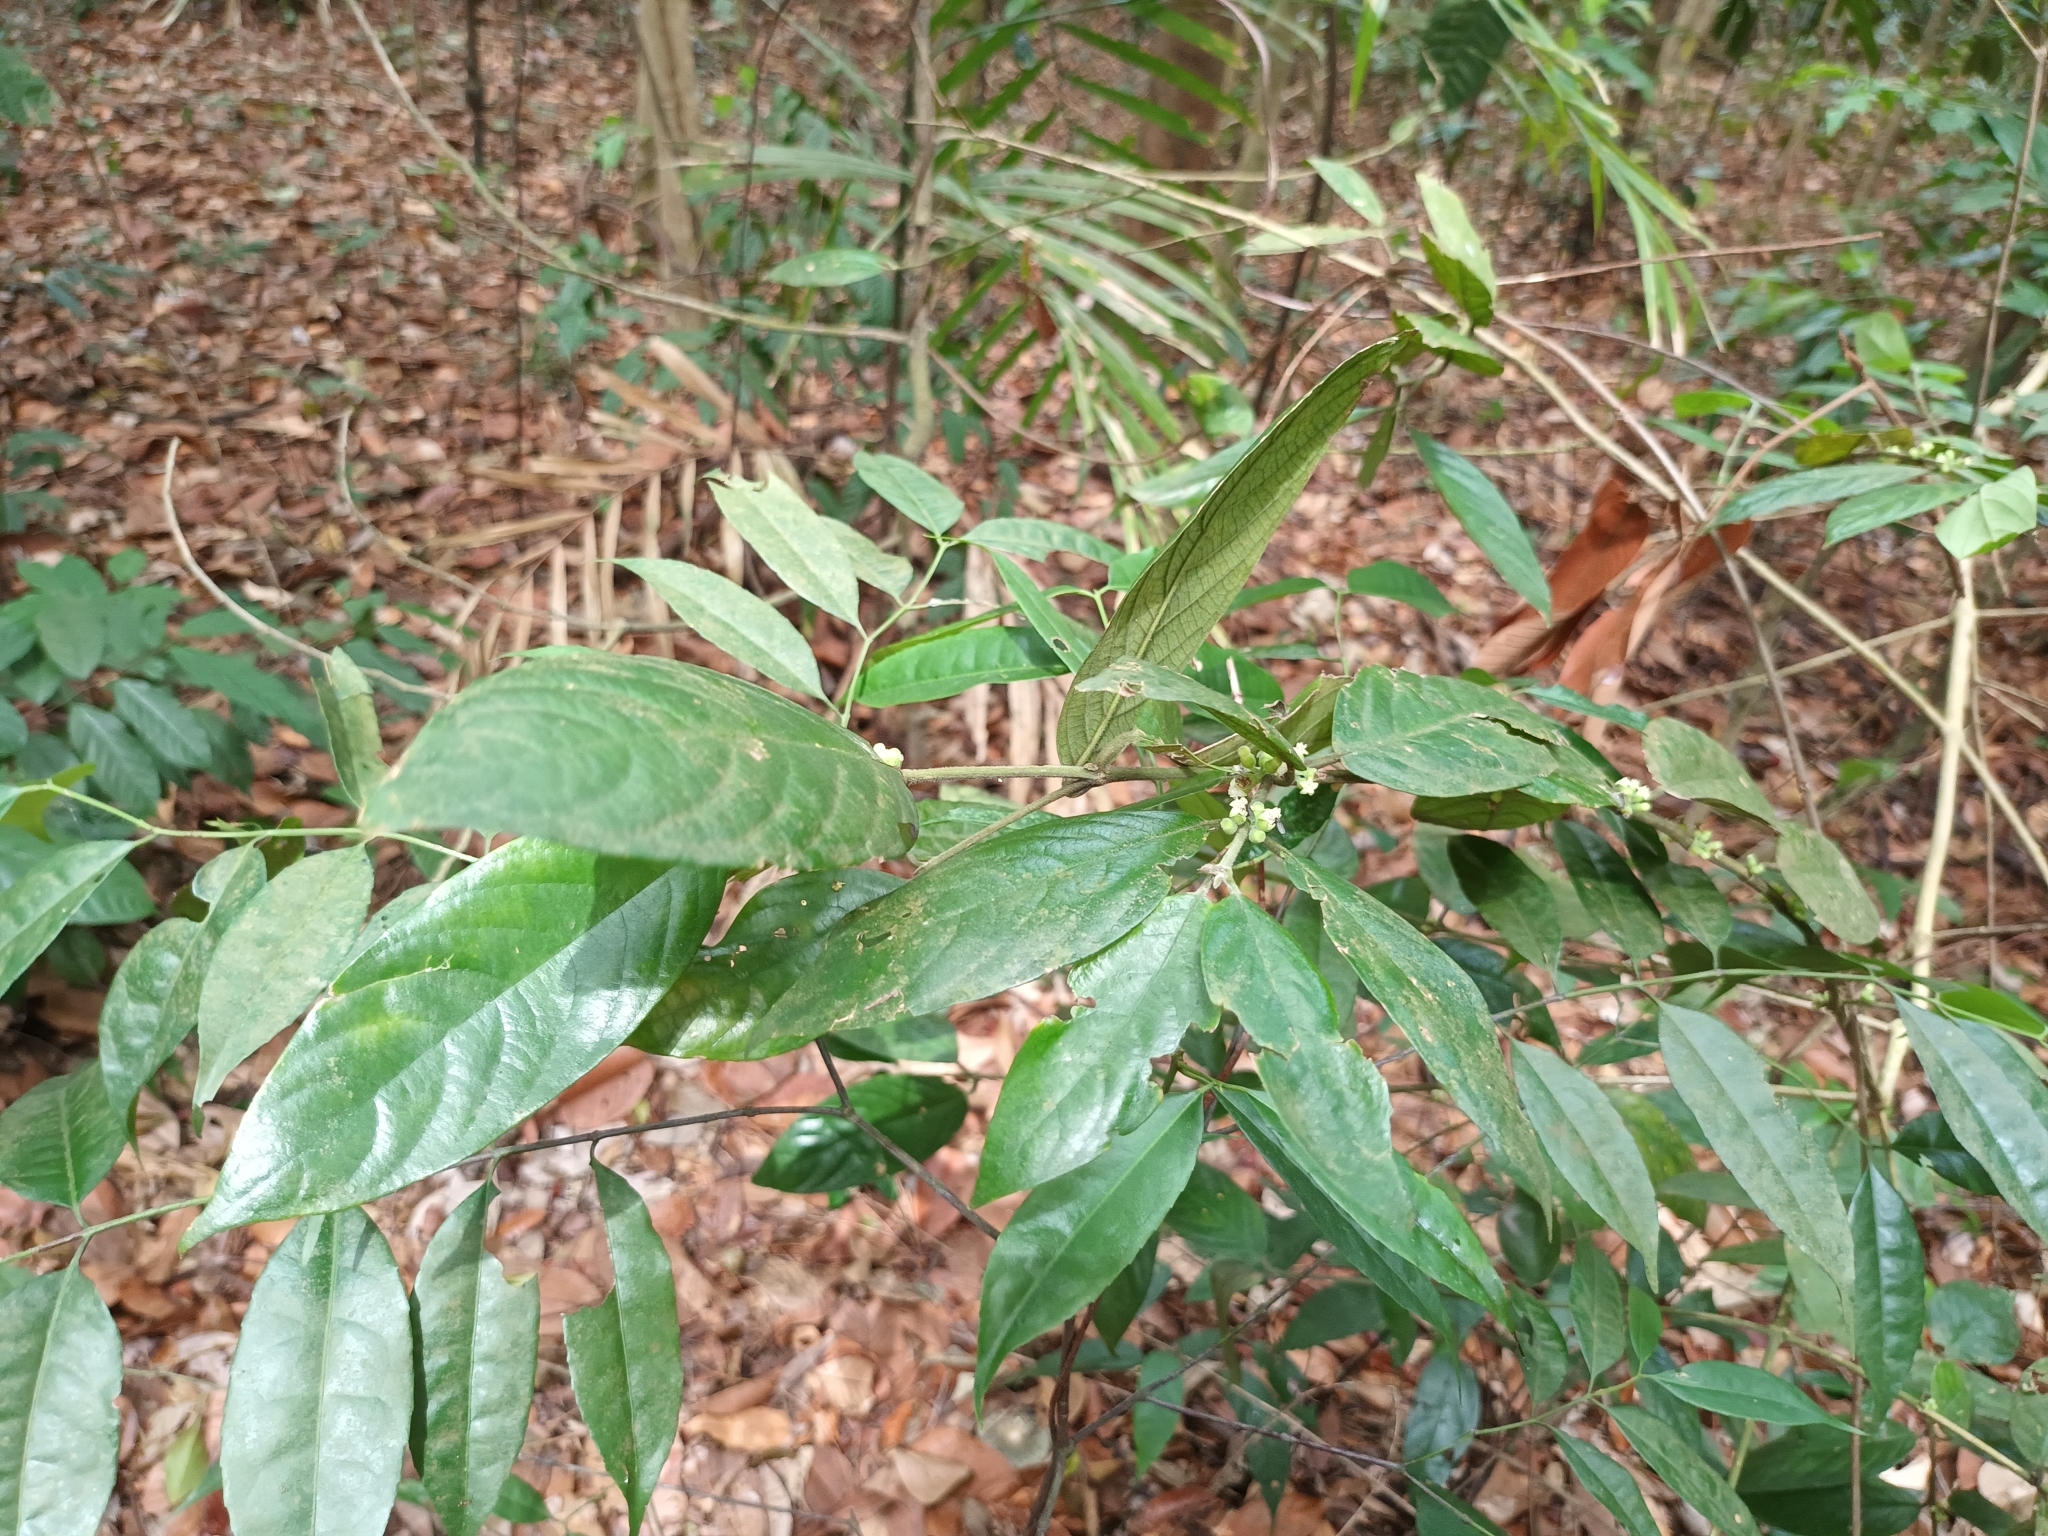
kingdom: Plantae
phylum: Tracheophyta
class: Magnoliopsida
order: Gentianales
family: Rubiaceae
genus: Canthium
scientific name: Canthium molle
